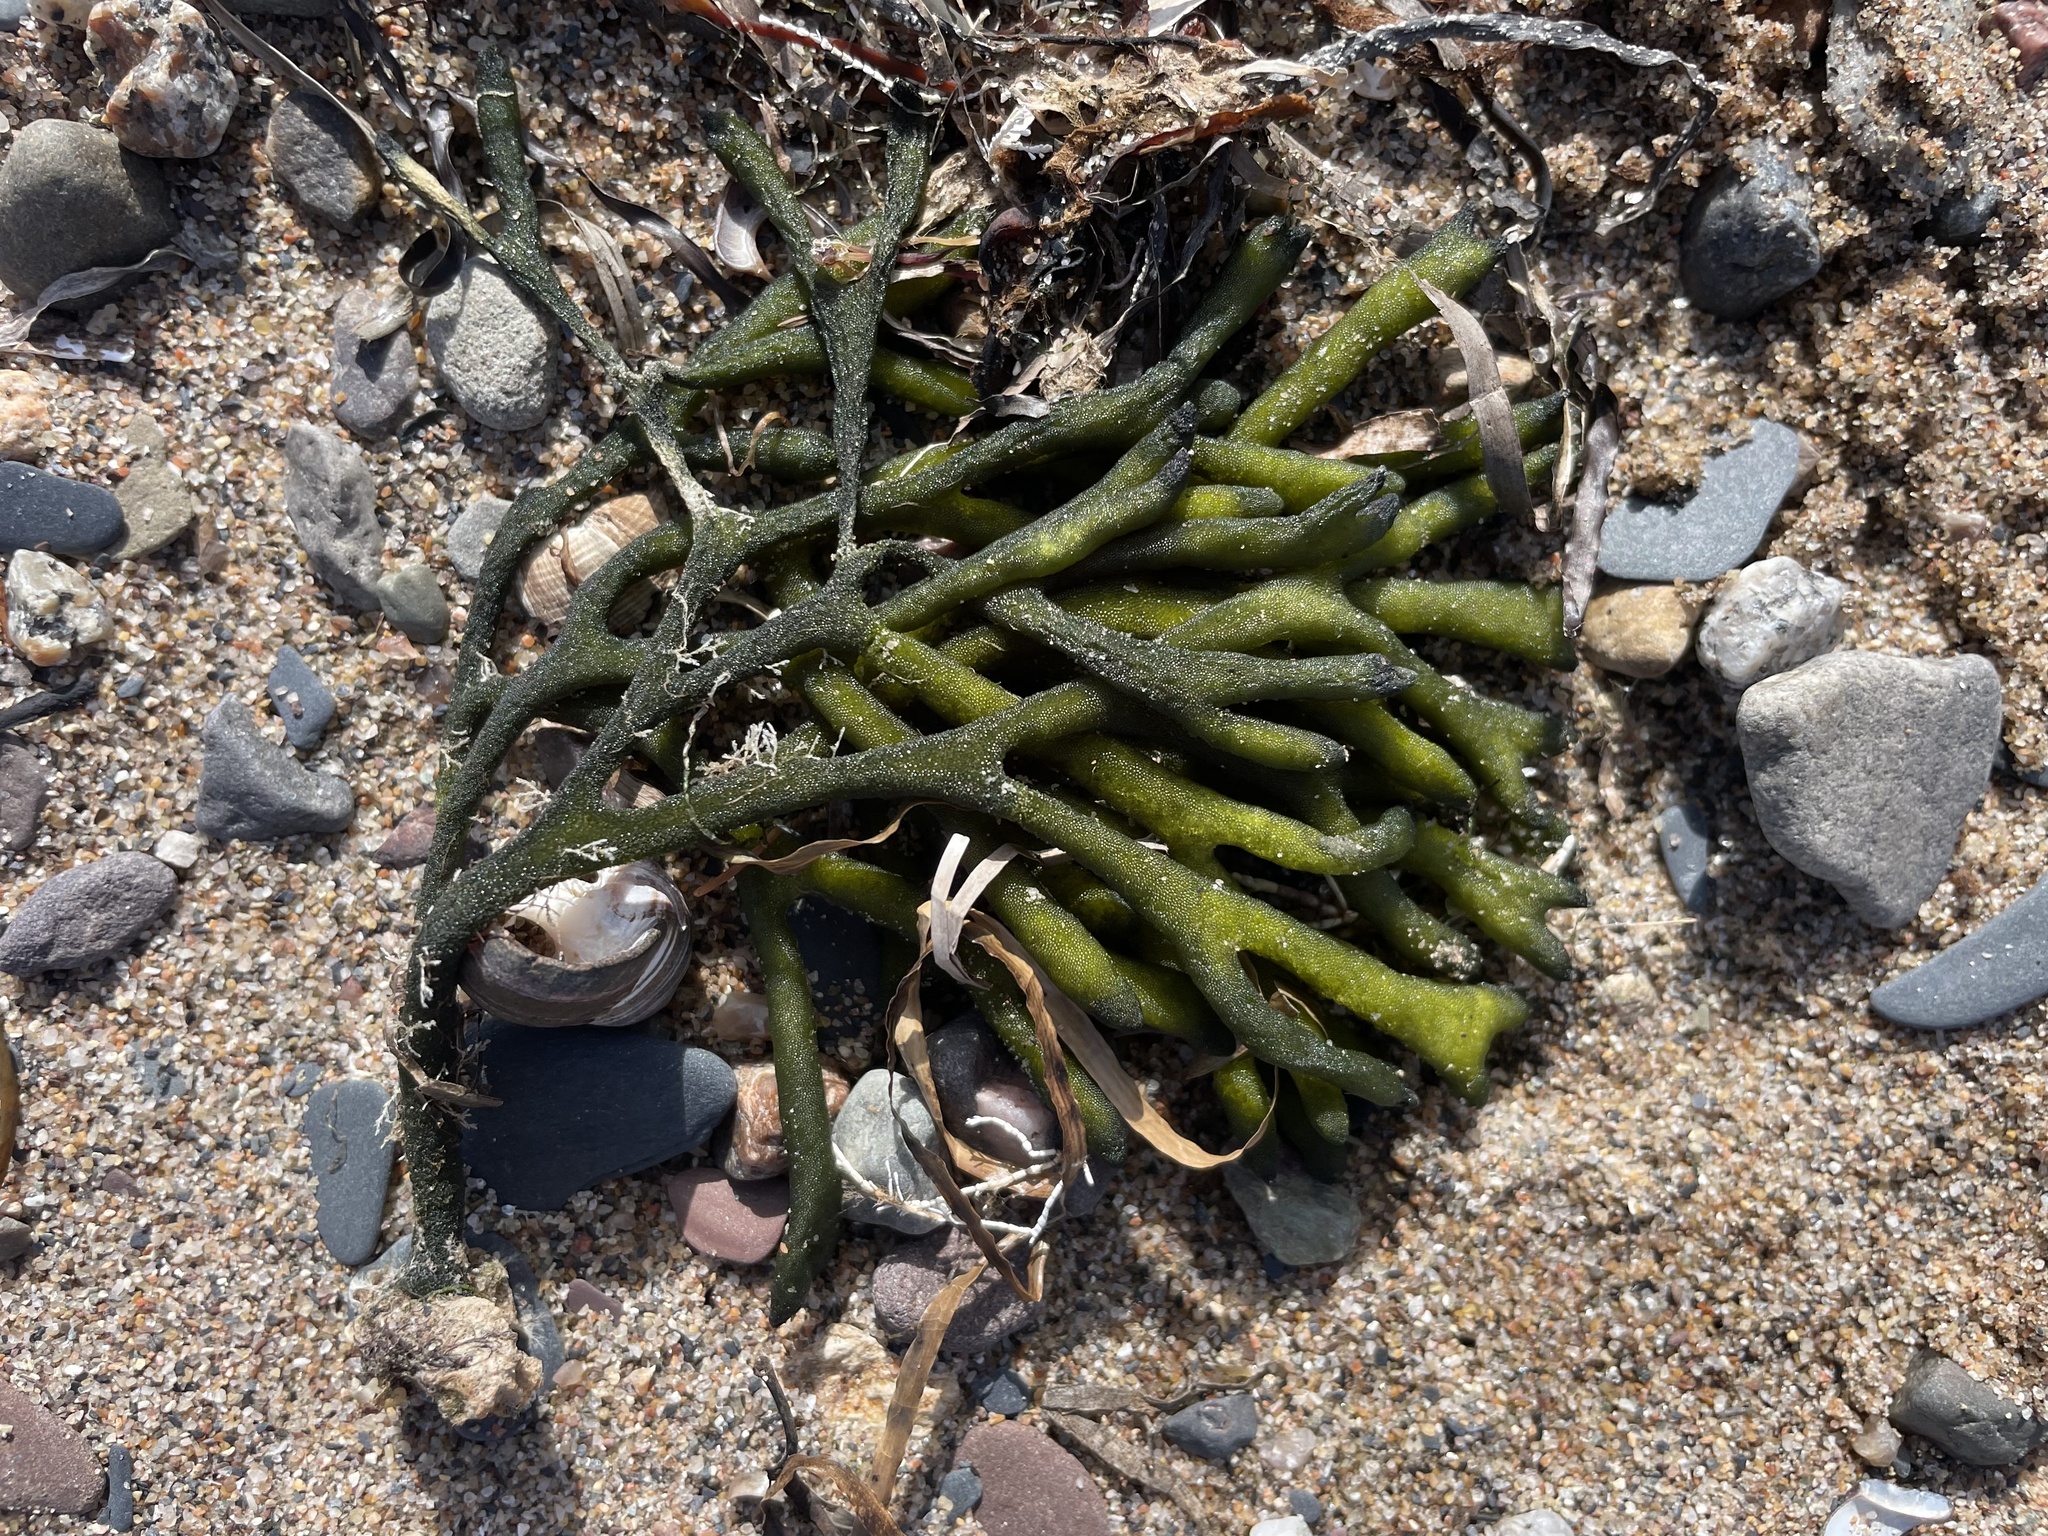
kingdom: Plantae
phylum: Chlorophyta
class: Ulvophyceae
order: Bryopsidales
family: Codiaceae
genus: Codium
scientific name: Codium fragile
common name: Dead man's fingers
